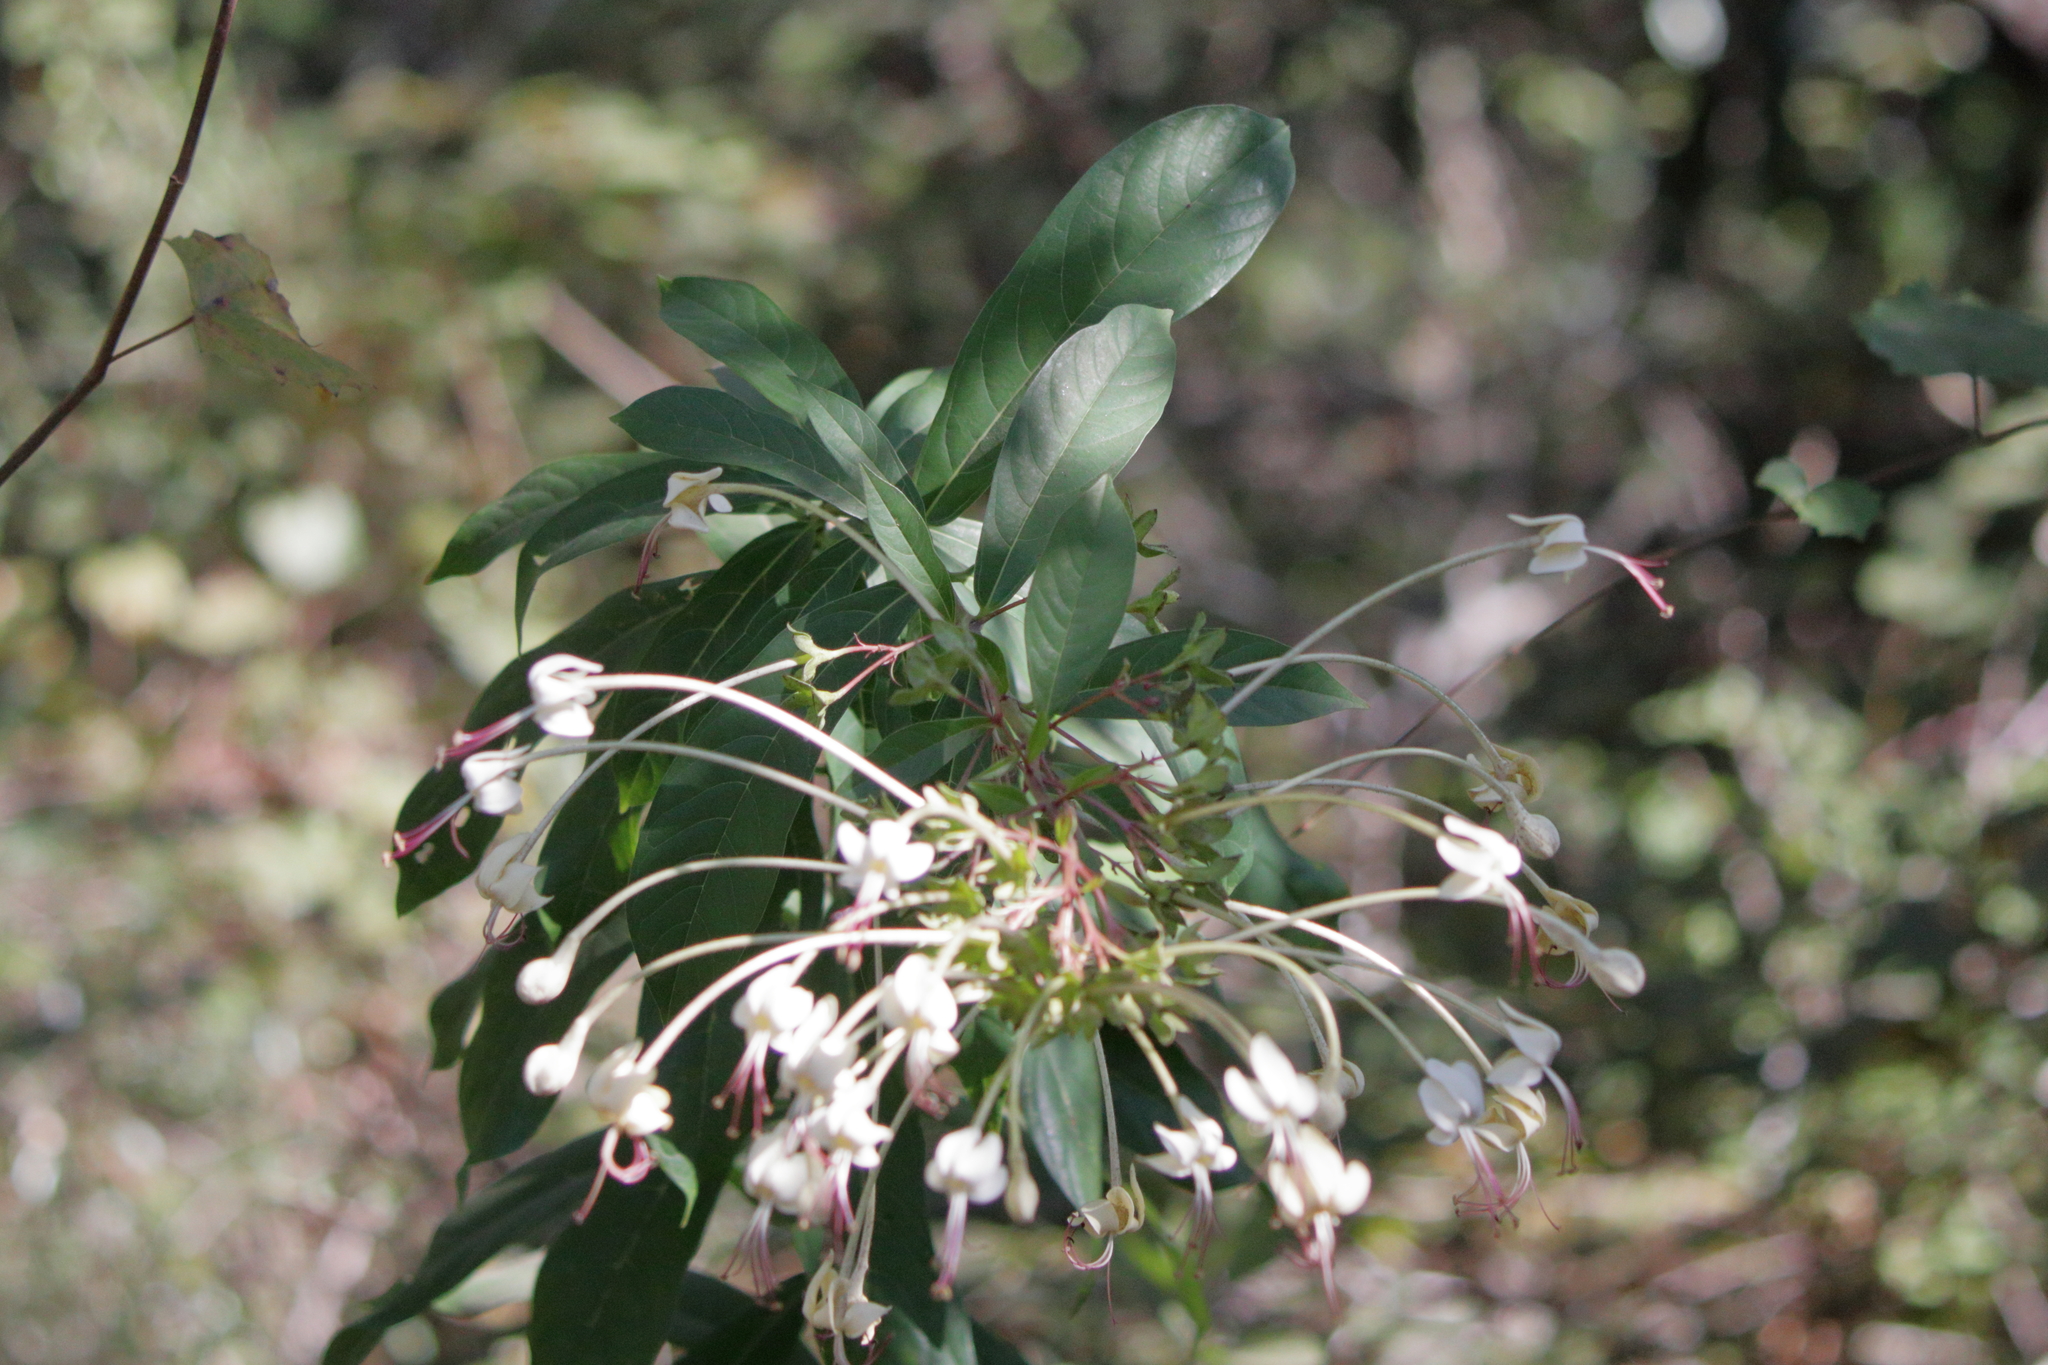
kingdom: Plantae
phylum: Tracheophyta
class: Magnoliopsida
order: Lamiales
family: Lamiaceae
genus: Clerodendrum
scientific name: Clerodendrum indicum
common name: Turk's turbin
